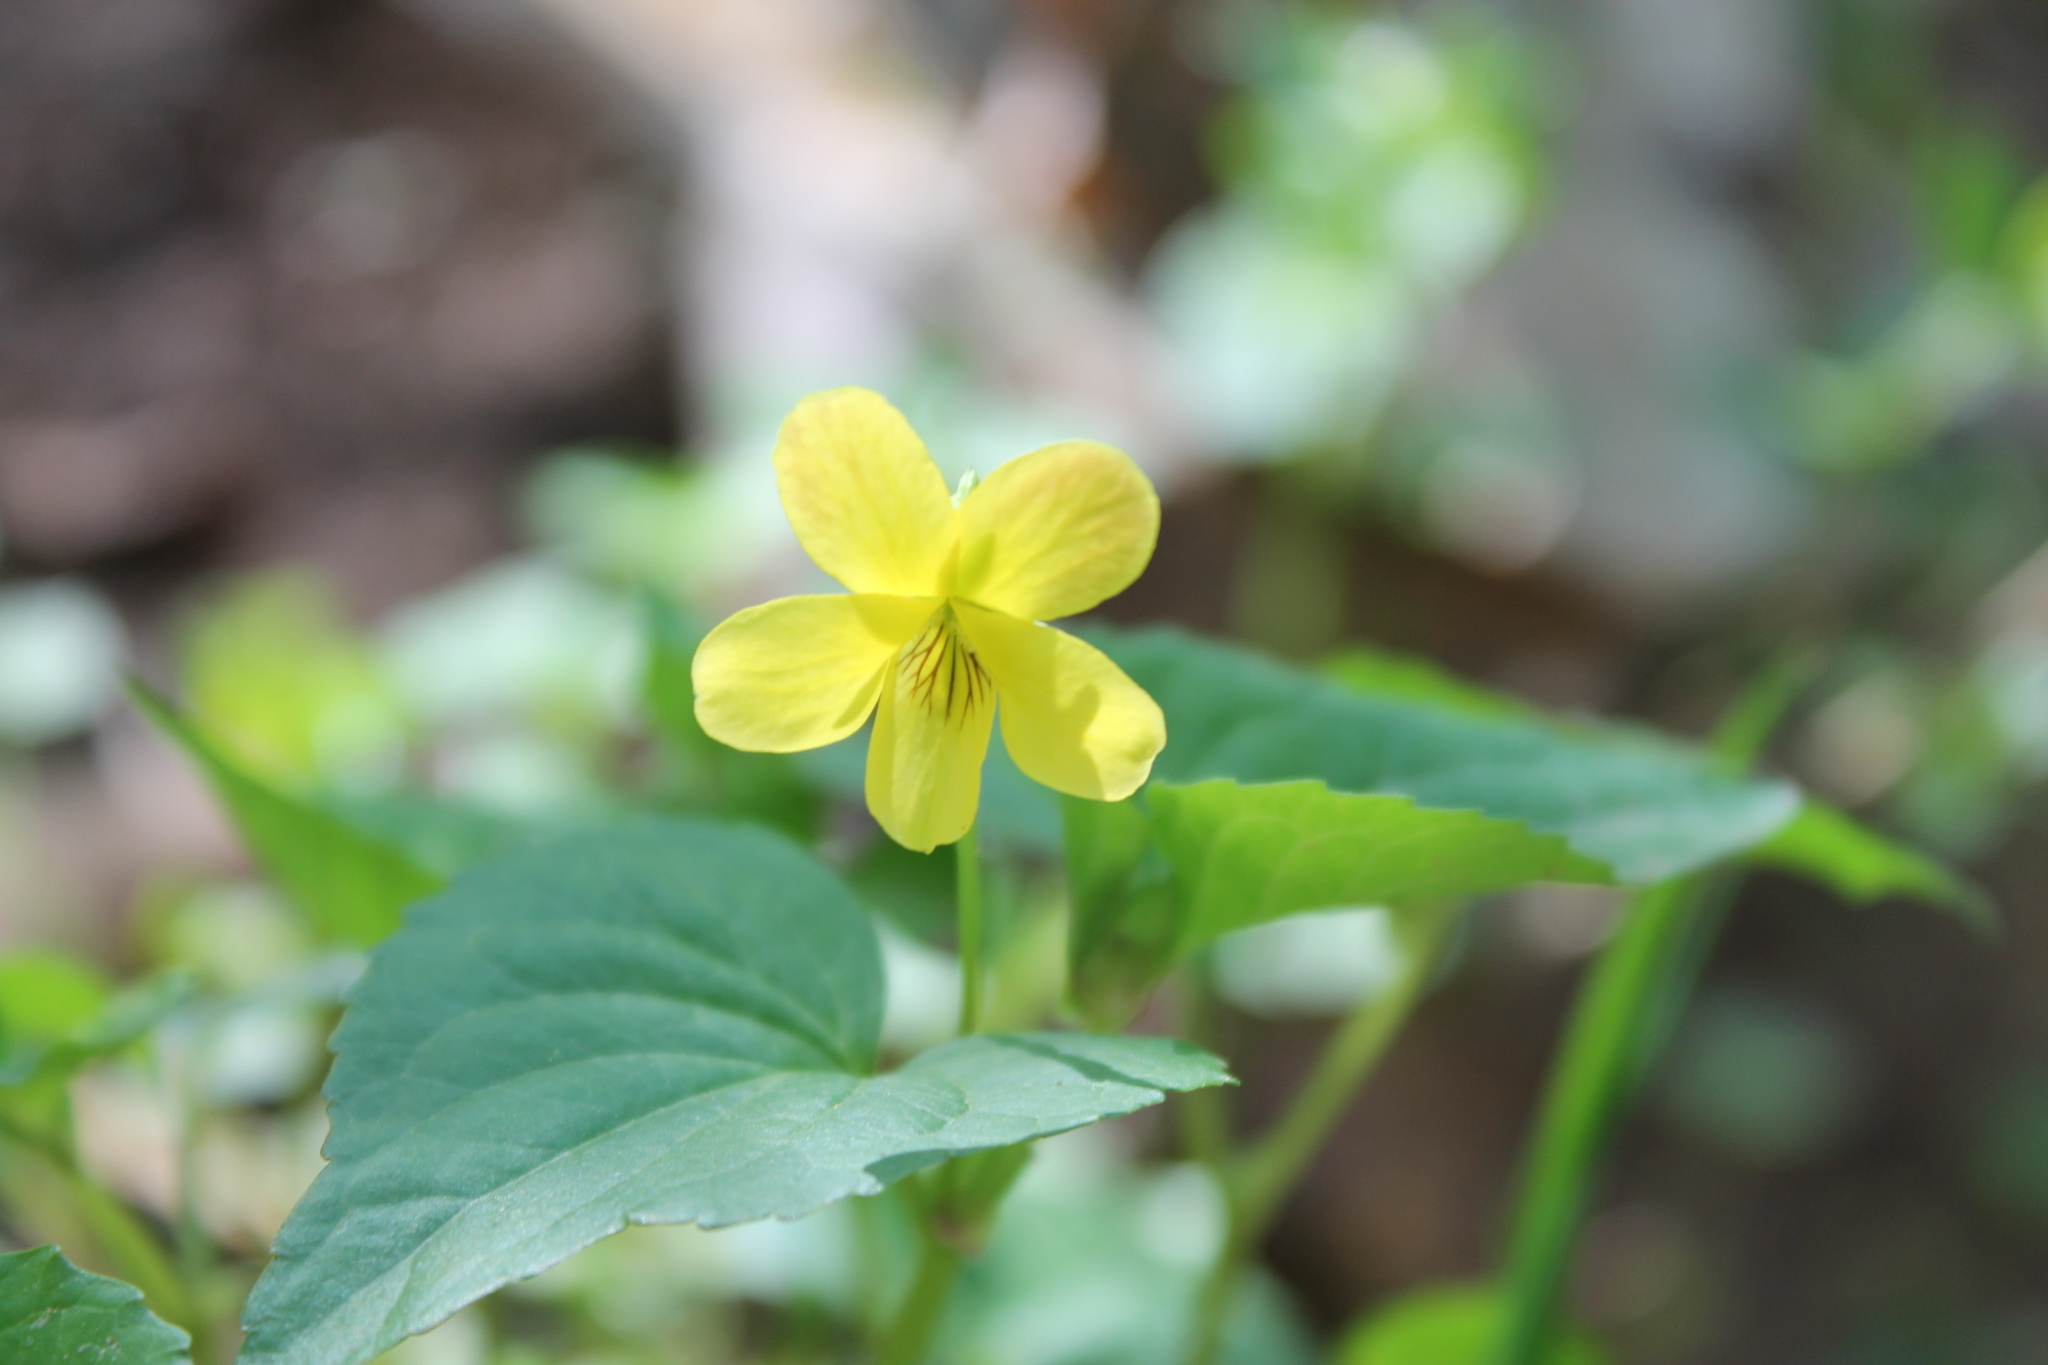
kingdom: Plantae
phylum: Tracheophyta
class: Magnoliopsida
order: Malpighiales
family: Violaceae
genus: Viola
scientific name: Viola eriocarpa
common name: Smooth yellow violet
